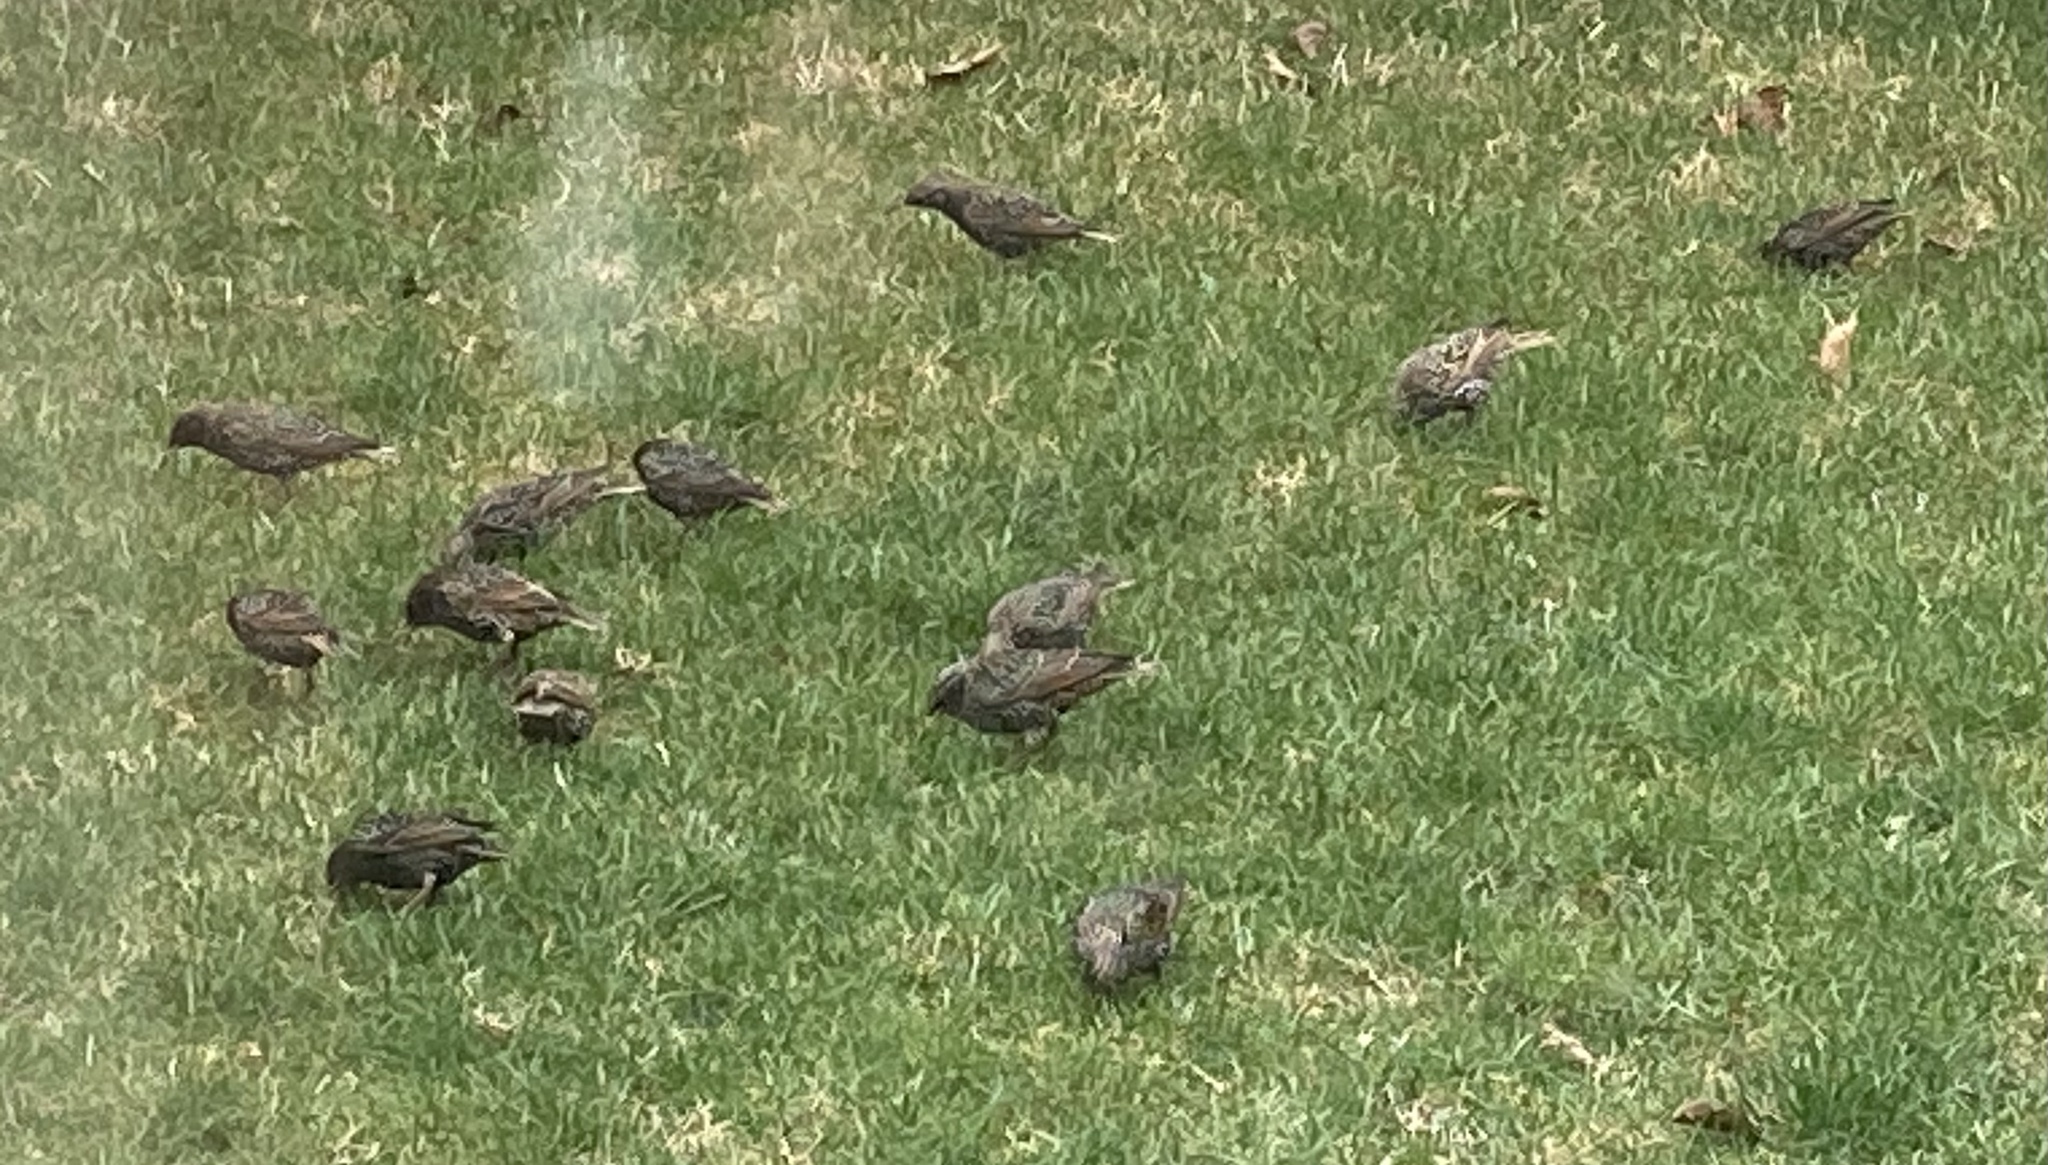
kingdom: Animalia
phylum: Chordata
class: Aves
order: Passeriformes
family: Sturnidae
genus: Sturnus
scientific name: Sturnus vulgaris
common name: Common starling
